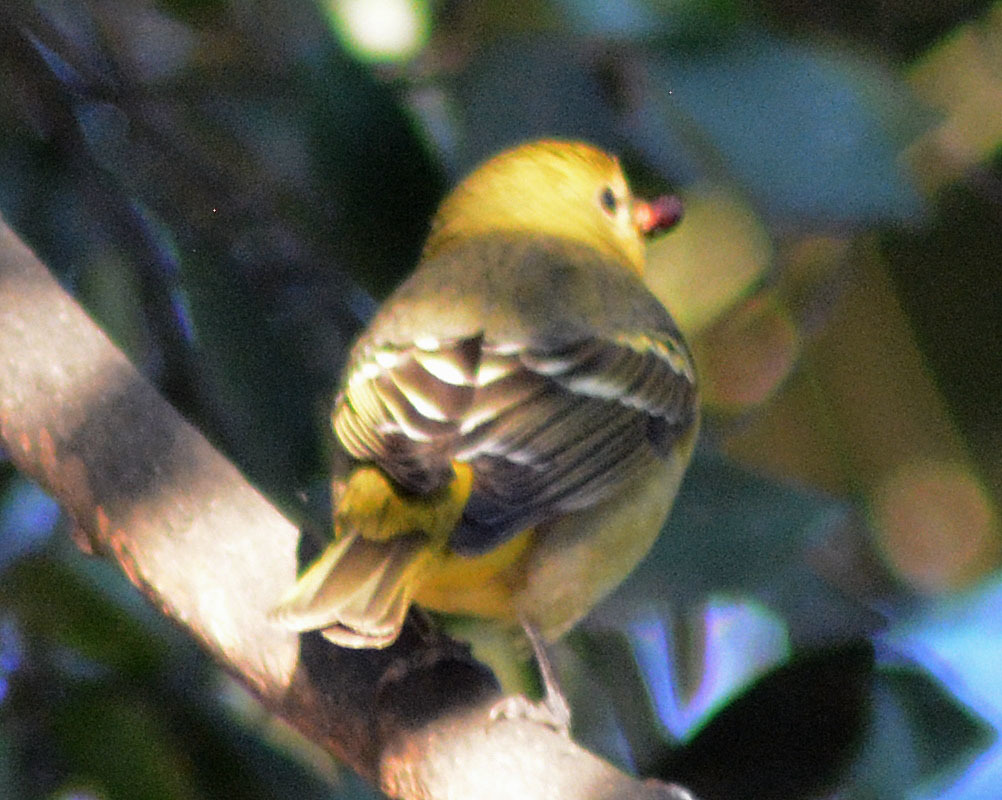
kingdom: Animalia
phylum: Chordata
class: Aves
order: Passeriformes
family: Cardinalidae
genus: Piranga
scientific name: Piranga ludoviciana
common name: Western tanager
